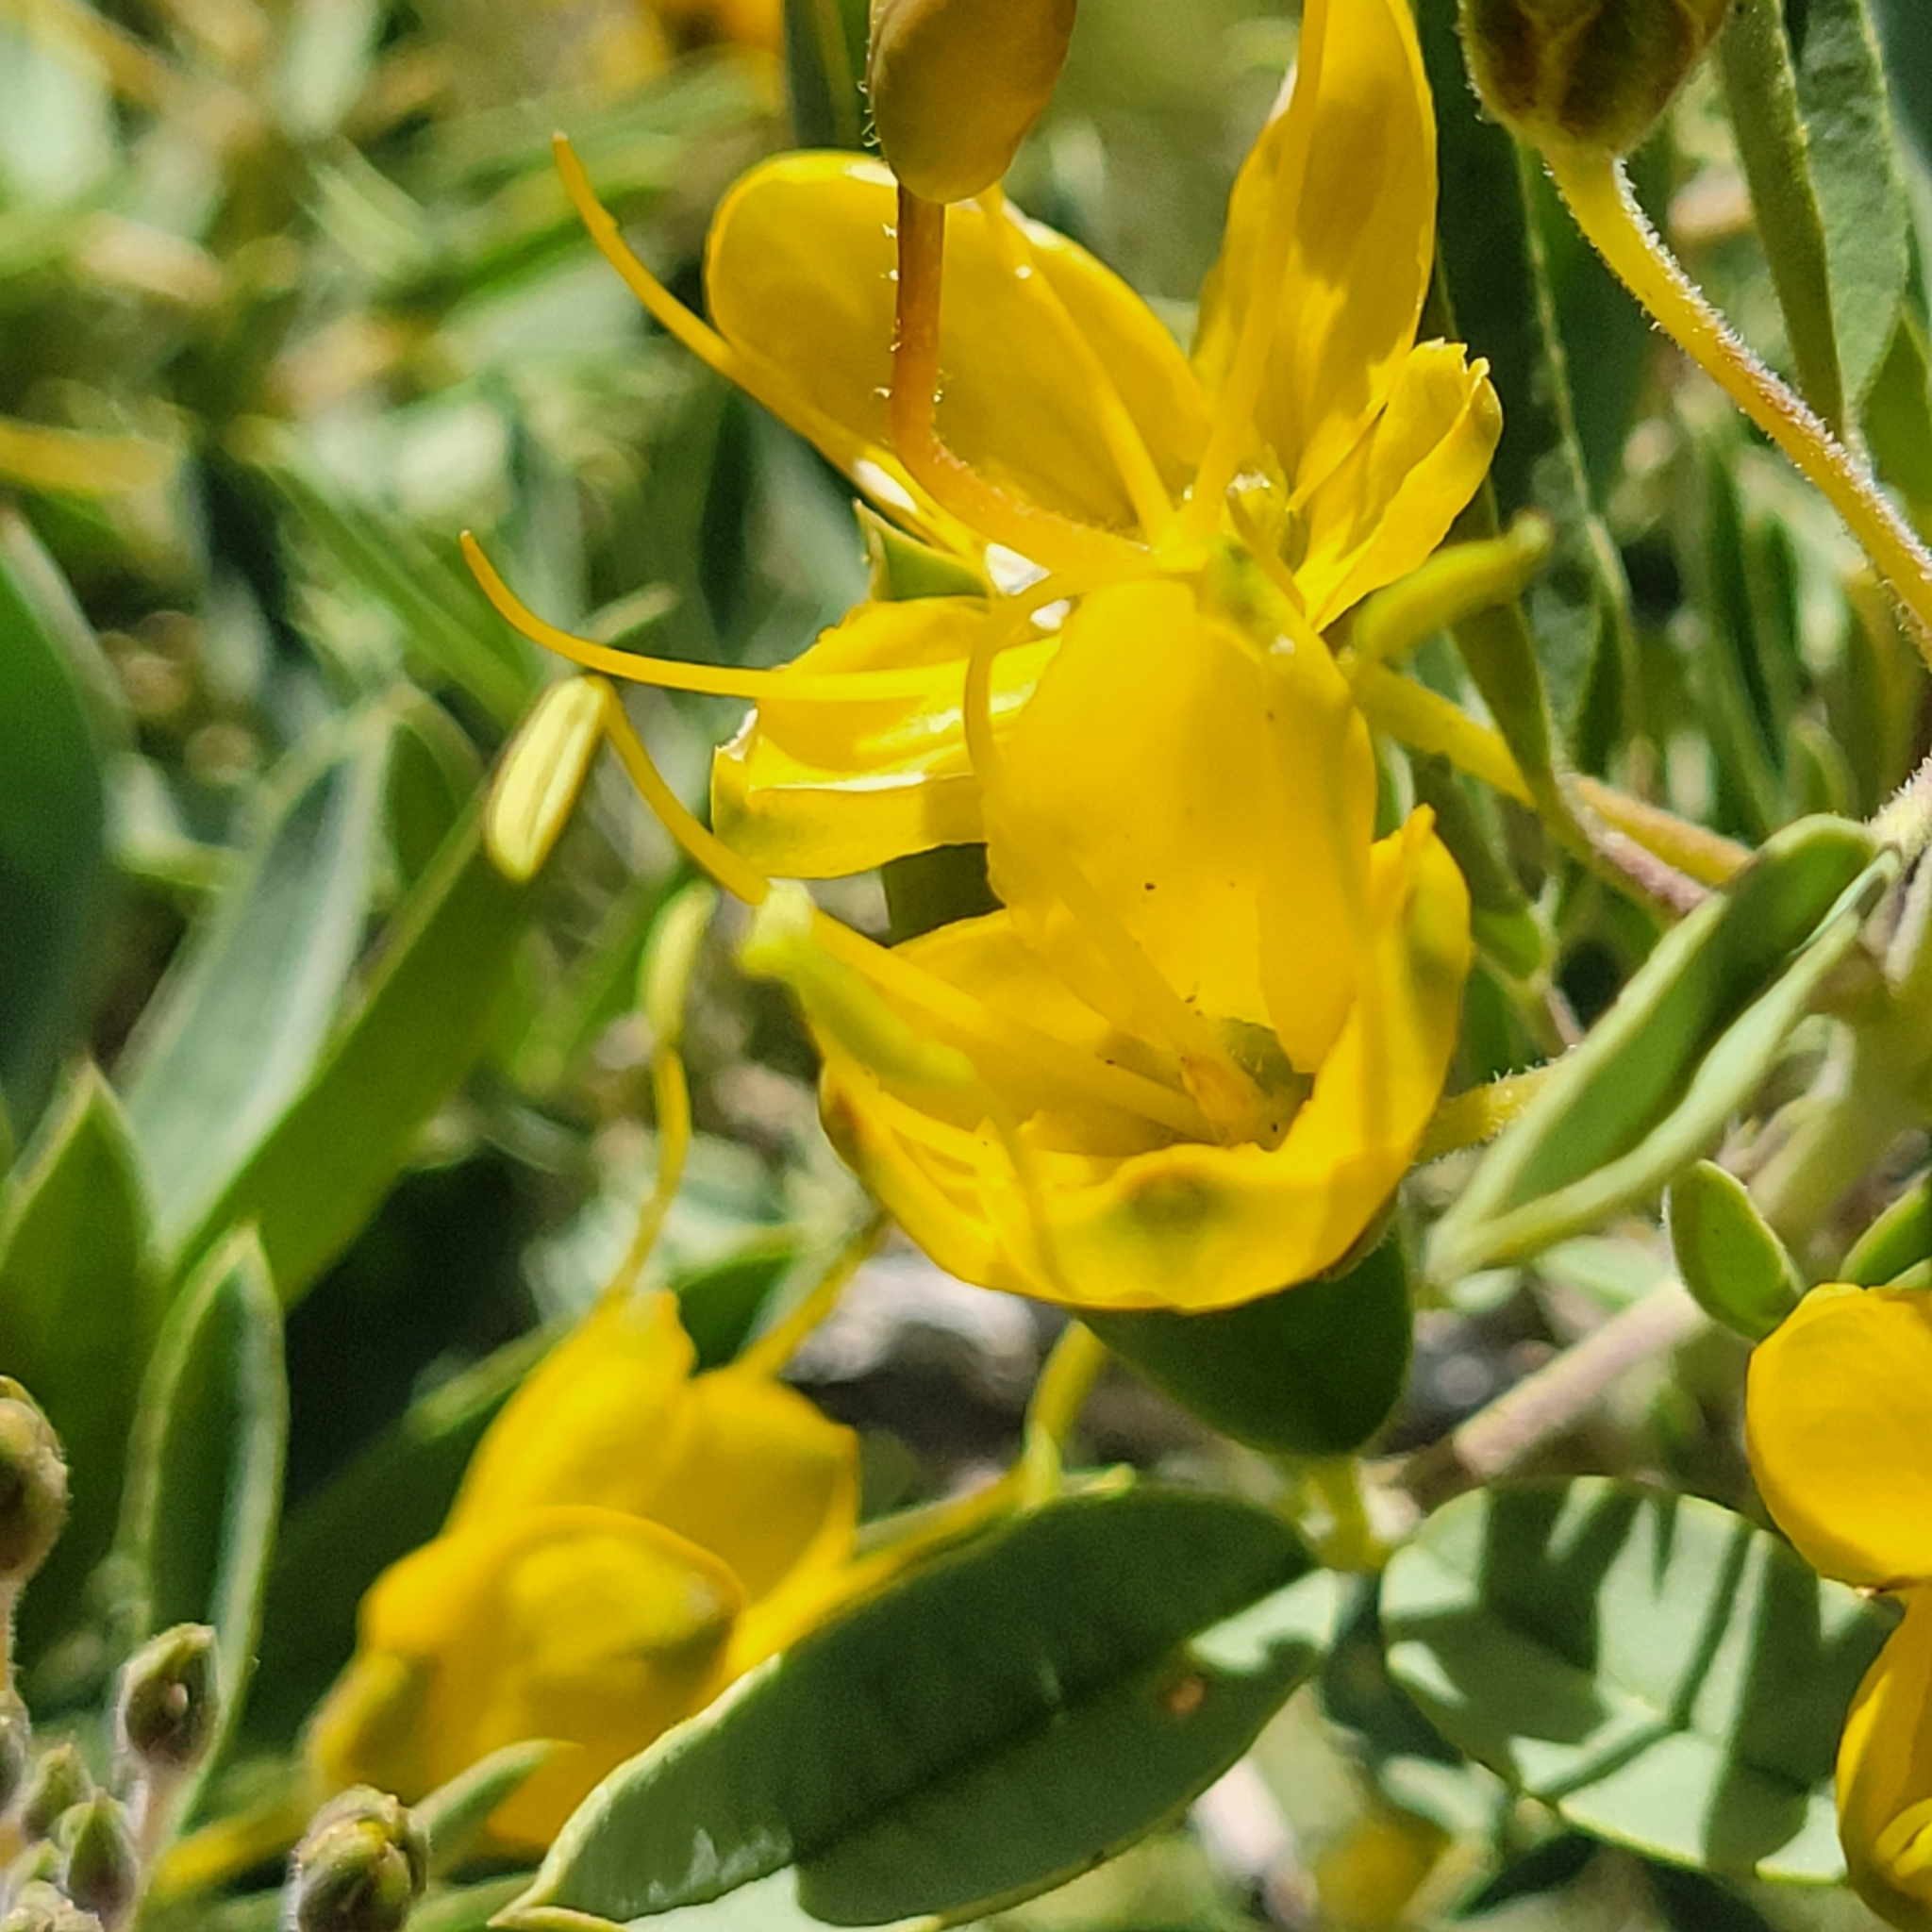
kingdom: Plantae
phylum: Tracheophyta
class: Magnoliopsida
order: Brassicales
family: Cleomaceae
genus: Cleomella
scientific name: Cleomella arborea
